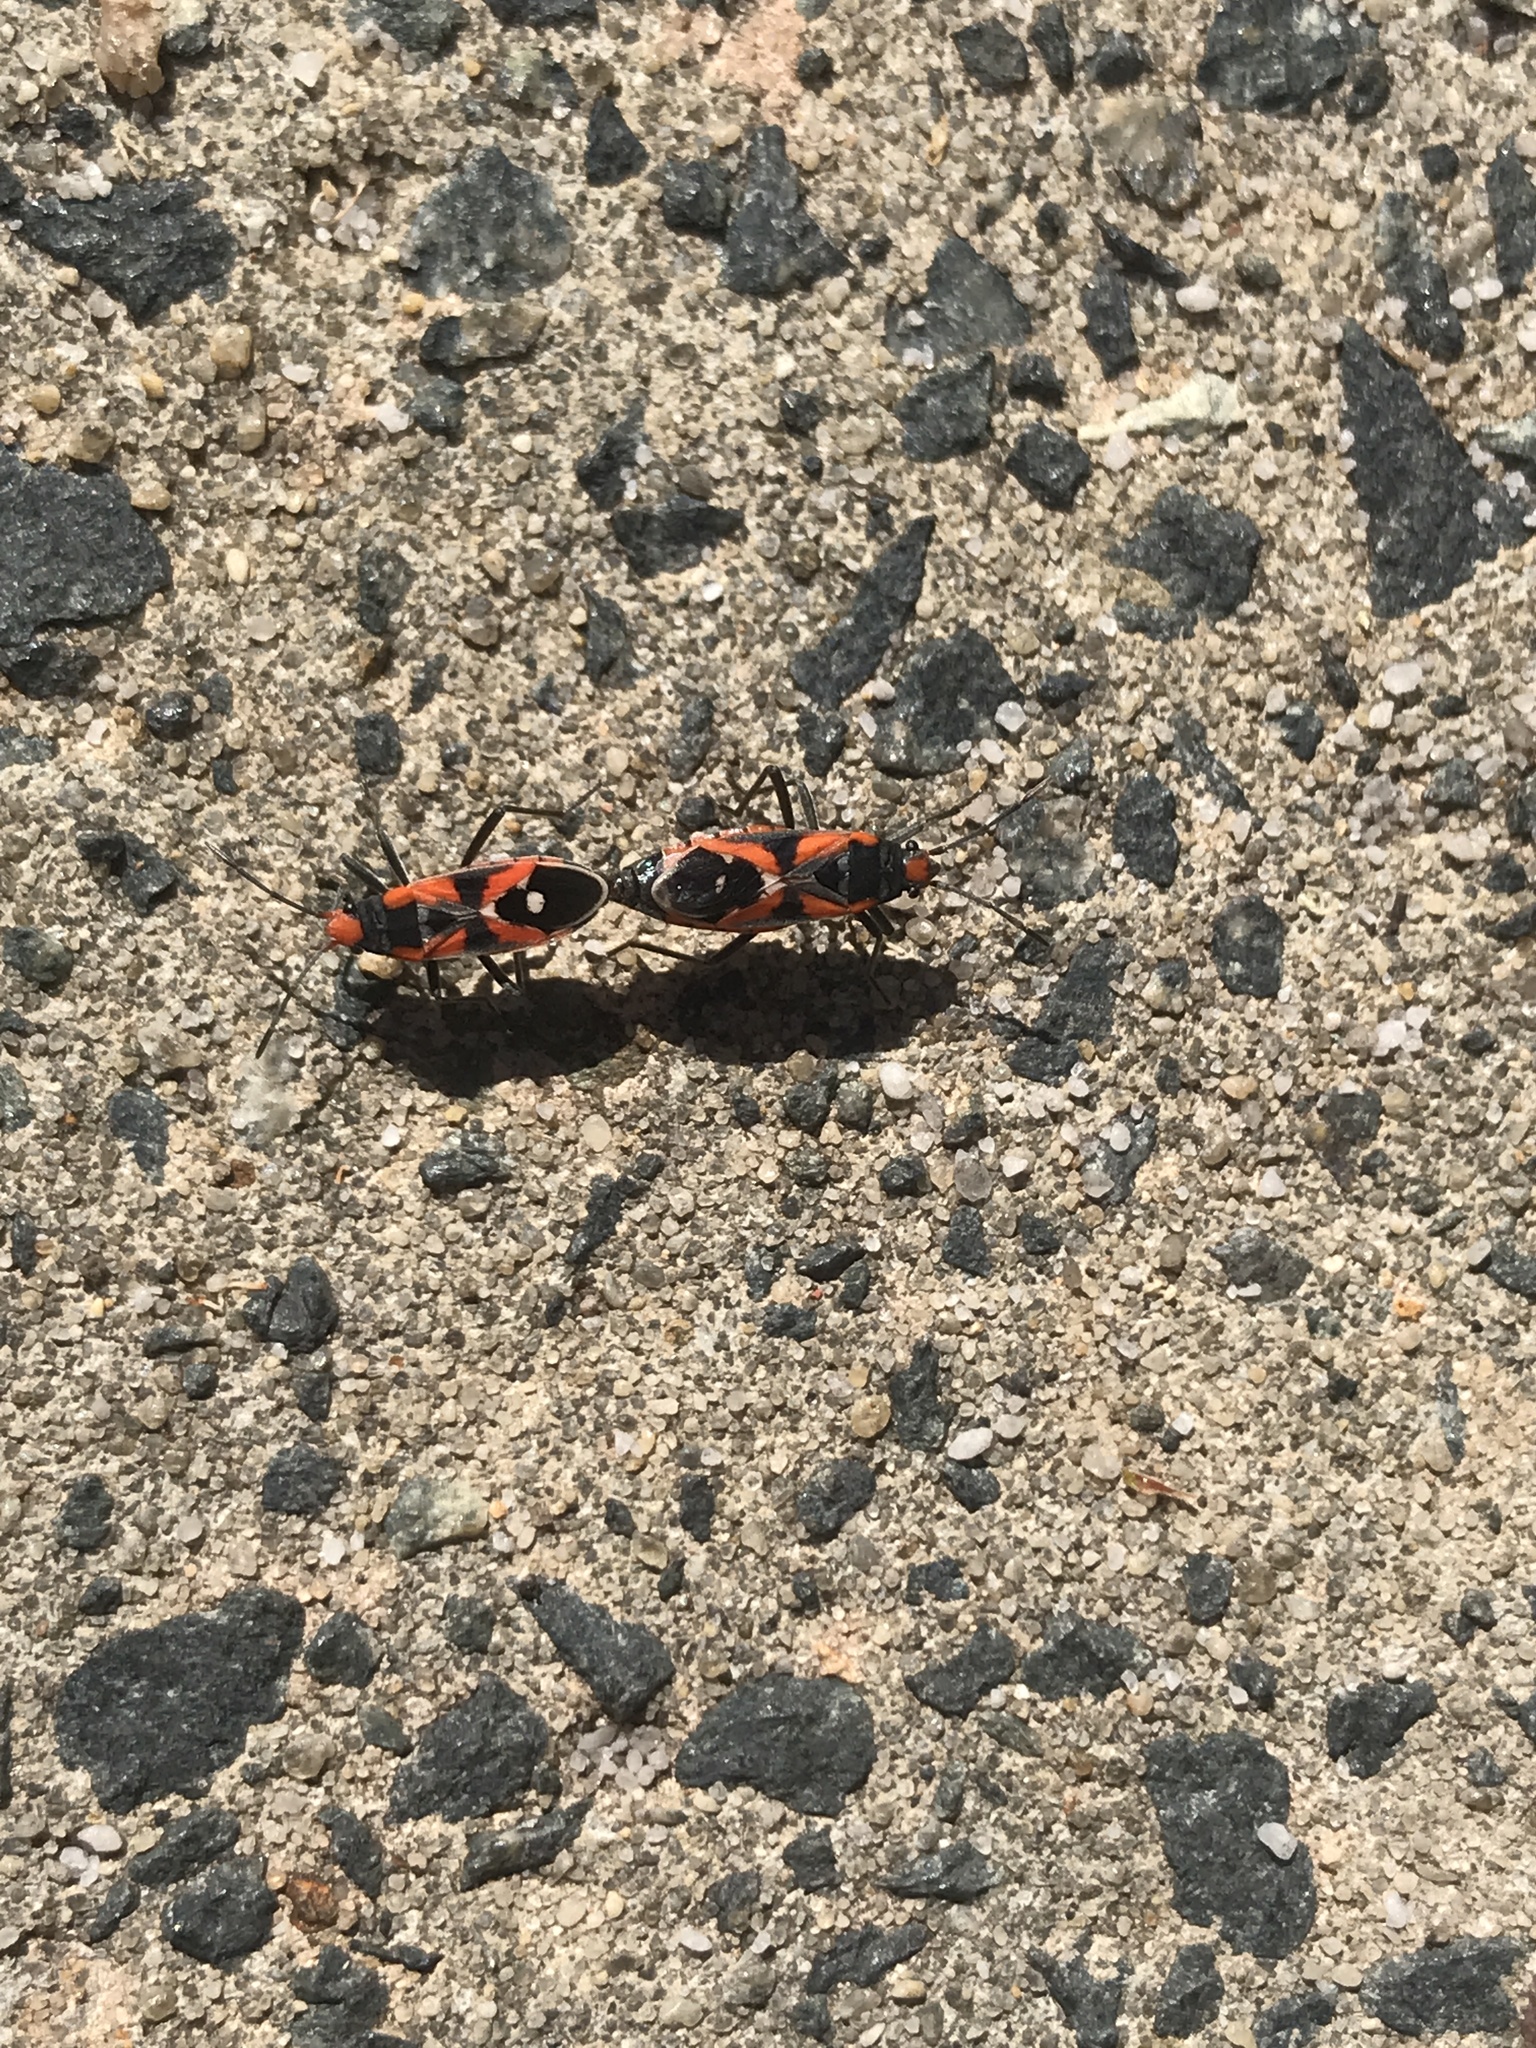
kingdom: Animalia
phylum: Arthropoda
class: Insecta
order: Hemiptera
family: Lygaeidae
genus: Melanerythrus
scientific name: Melanerythrus mactans
